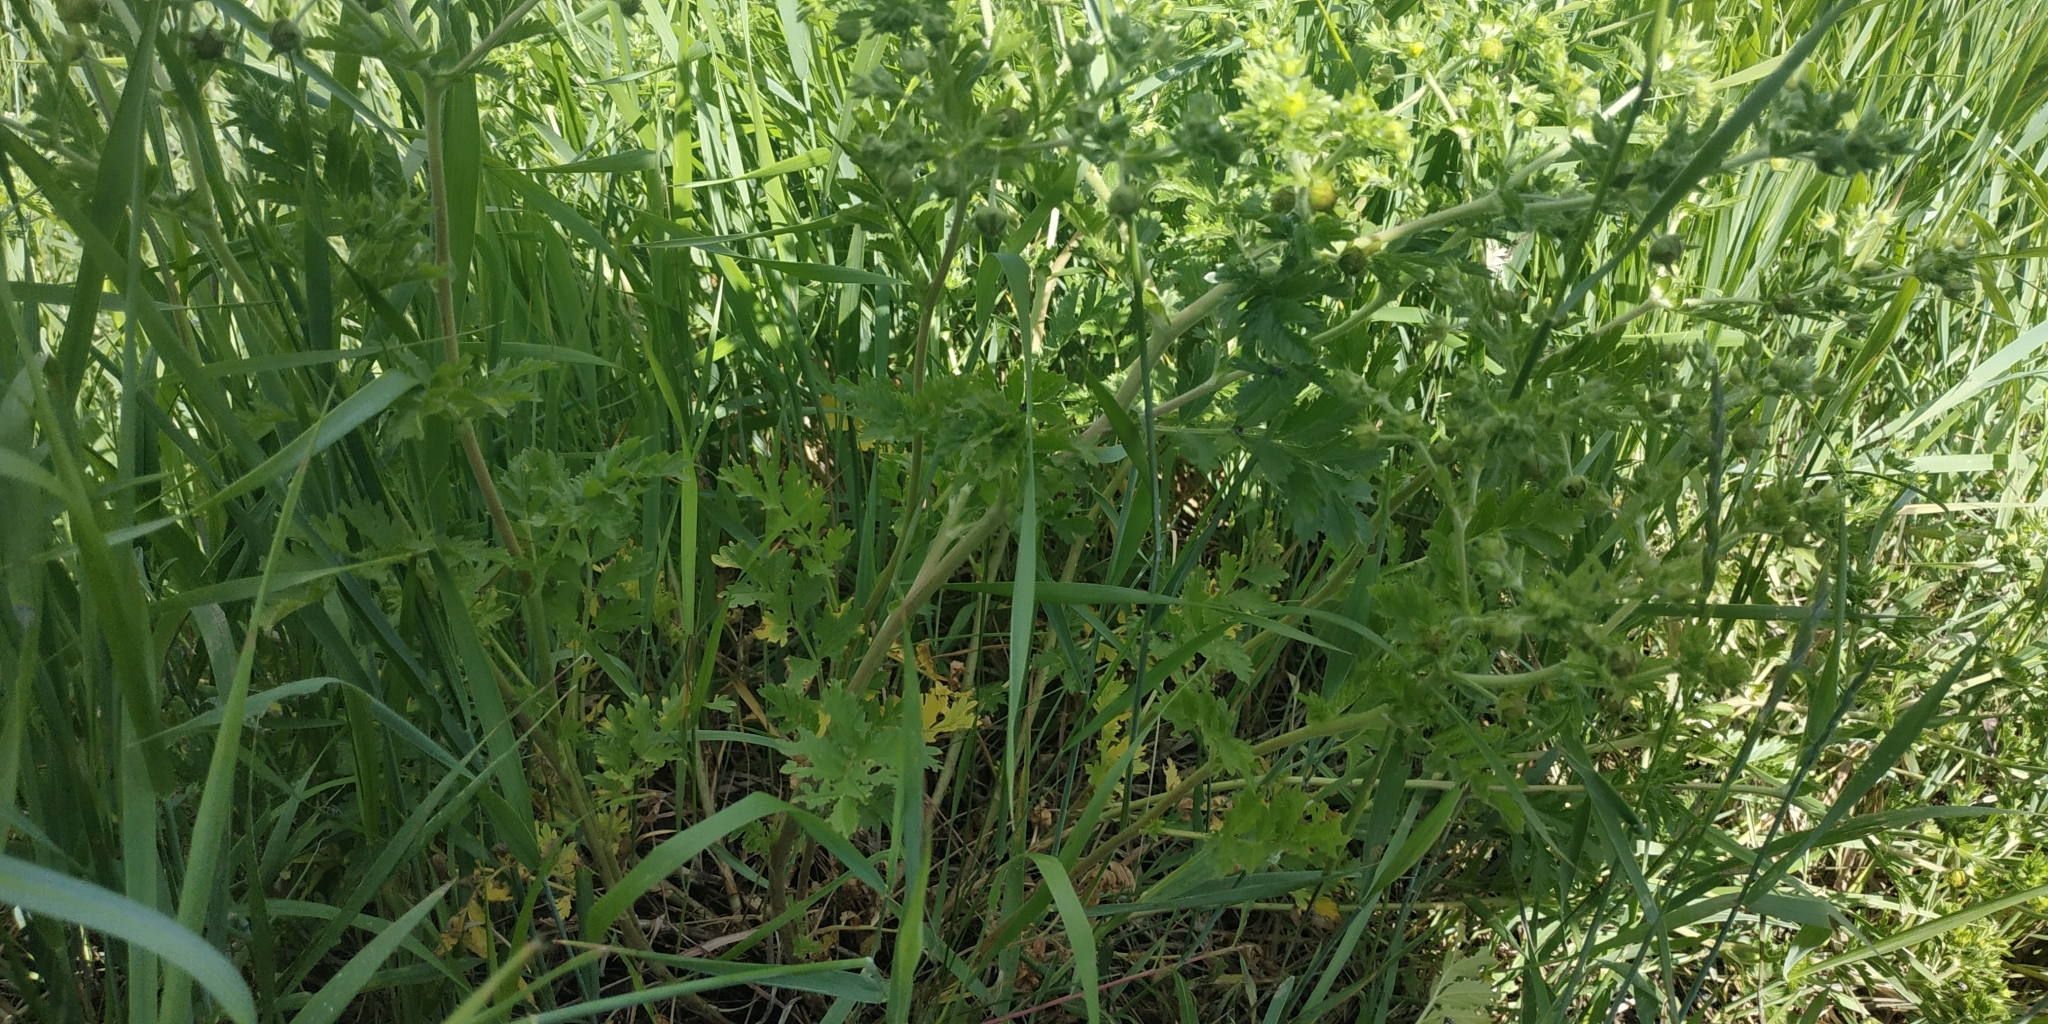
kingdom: Plantae
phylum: Tracheophyta
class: Magnoliopsida
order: Rosales
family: Rosaceae
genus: Potentilla
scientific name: Potentilla supina
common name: Prostrate cinquefoil
